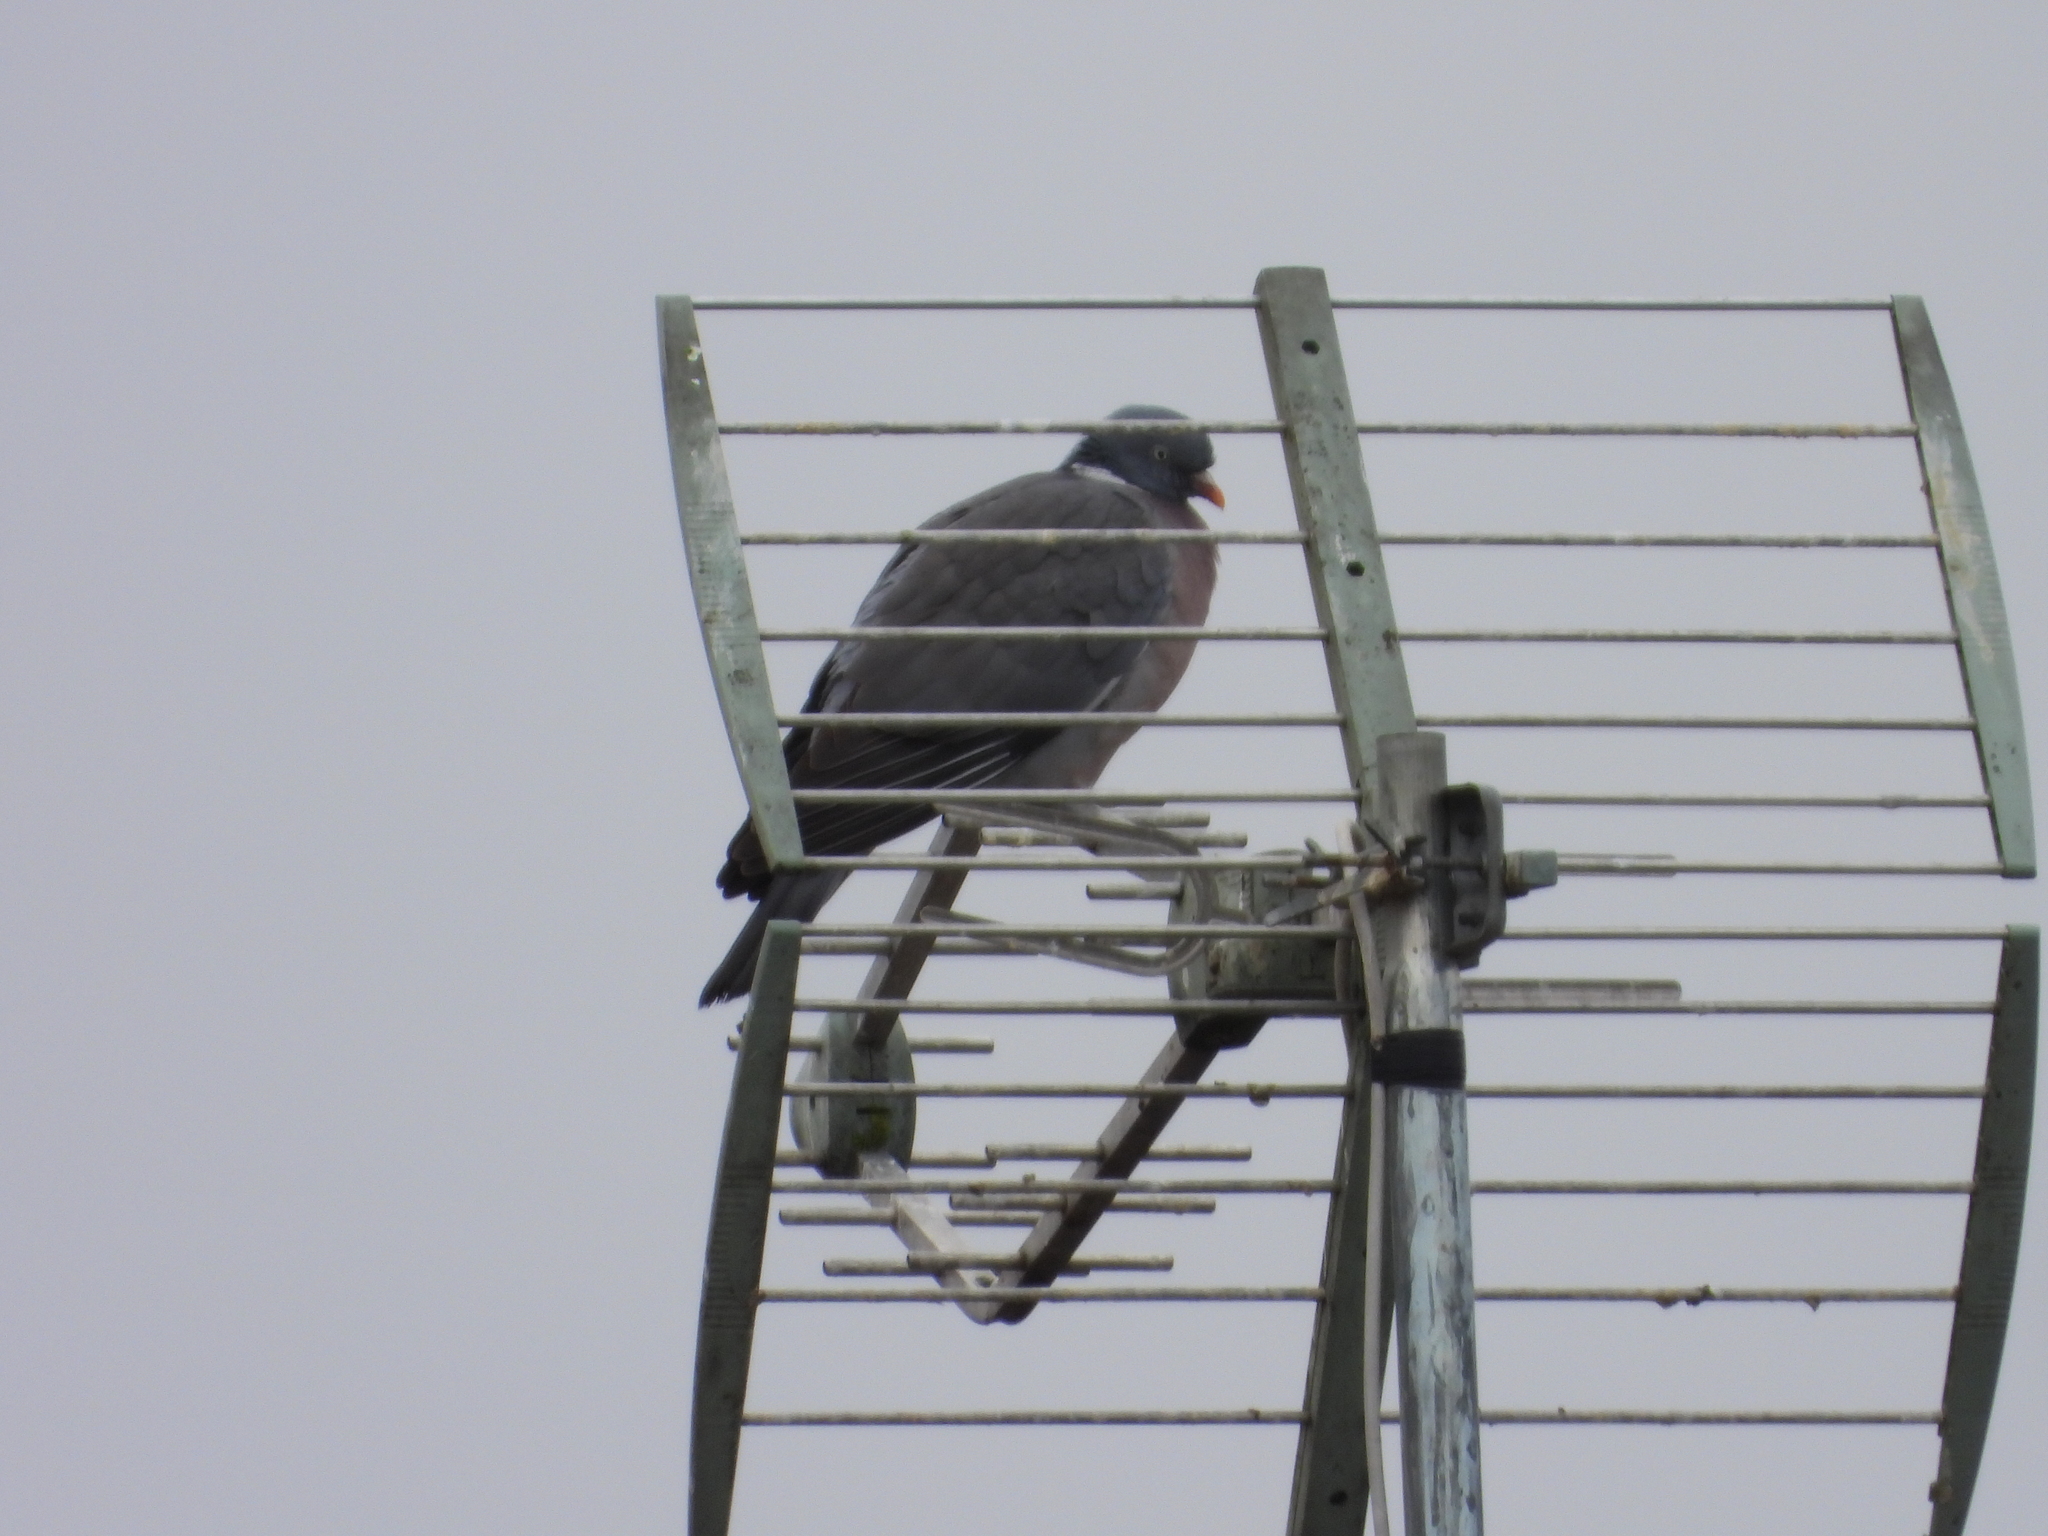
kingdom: Animalia
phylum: Chordata
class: Aves
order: Columbiformes
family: Columbidae
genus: Columba
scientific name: Columba palumbus
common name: Common wood pigeon
